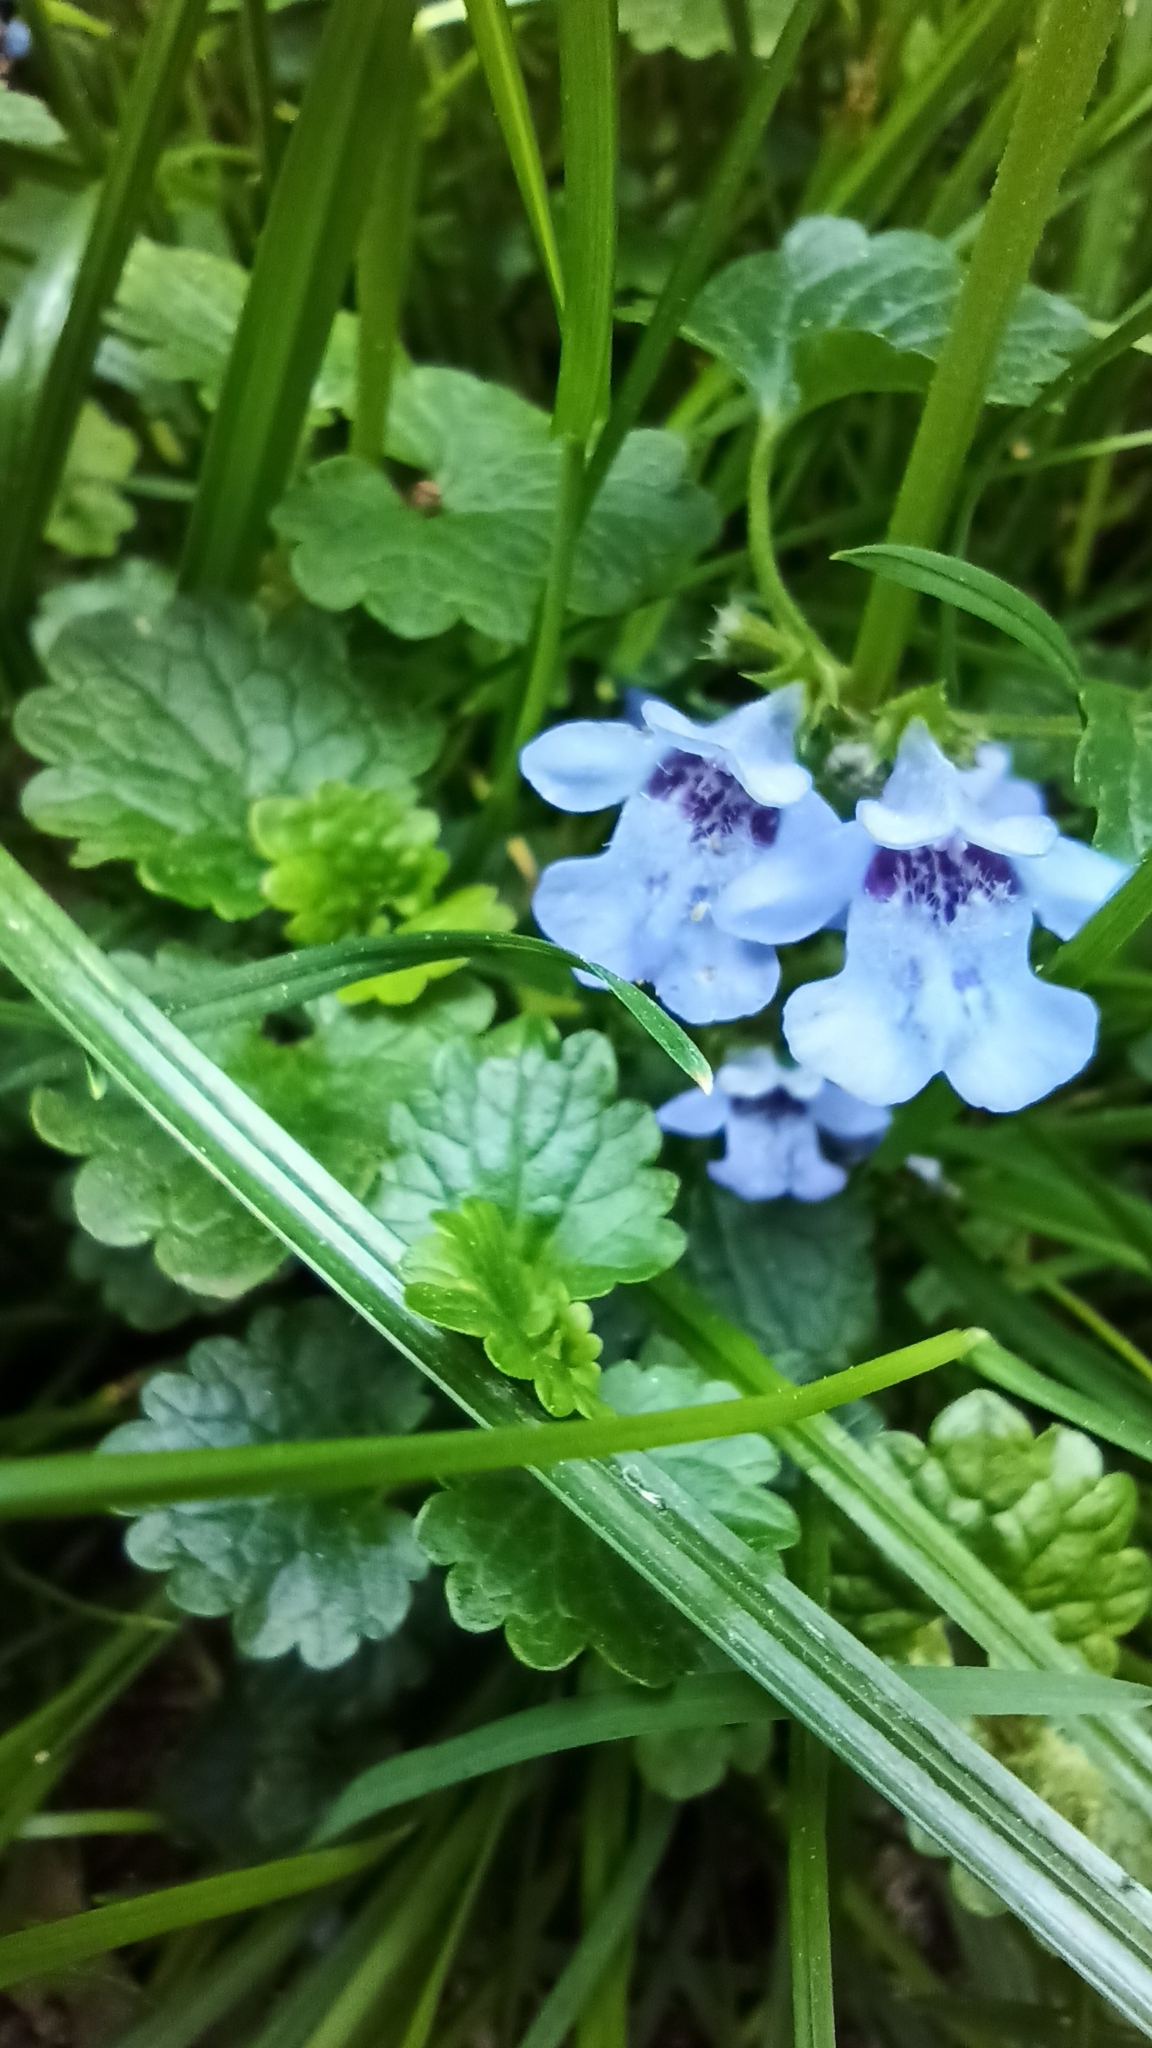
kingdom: Plantae
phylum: Tracheophyta
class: Magnoliopsida
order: Lamiales
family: Lamiaceae
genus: Glechoma
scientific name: Glechoma hederacea
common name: Ground ivy
